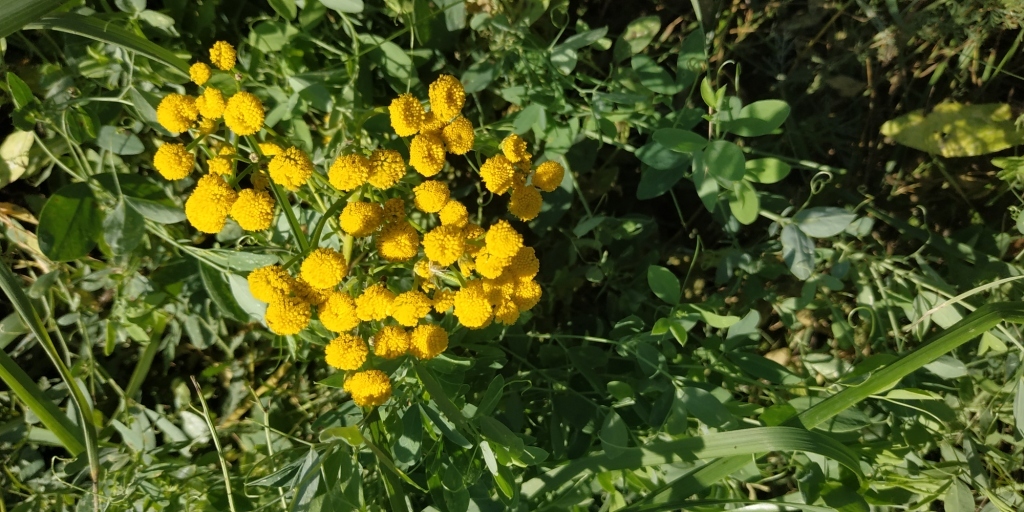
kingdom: Plantae
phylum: Tracheophyta
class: Magnoliopsida
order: Asterales
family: Asteraceae
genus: Tanacetum
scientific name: Tanacetum vulgare
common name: Common tansy
